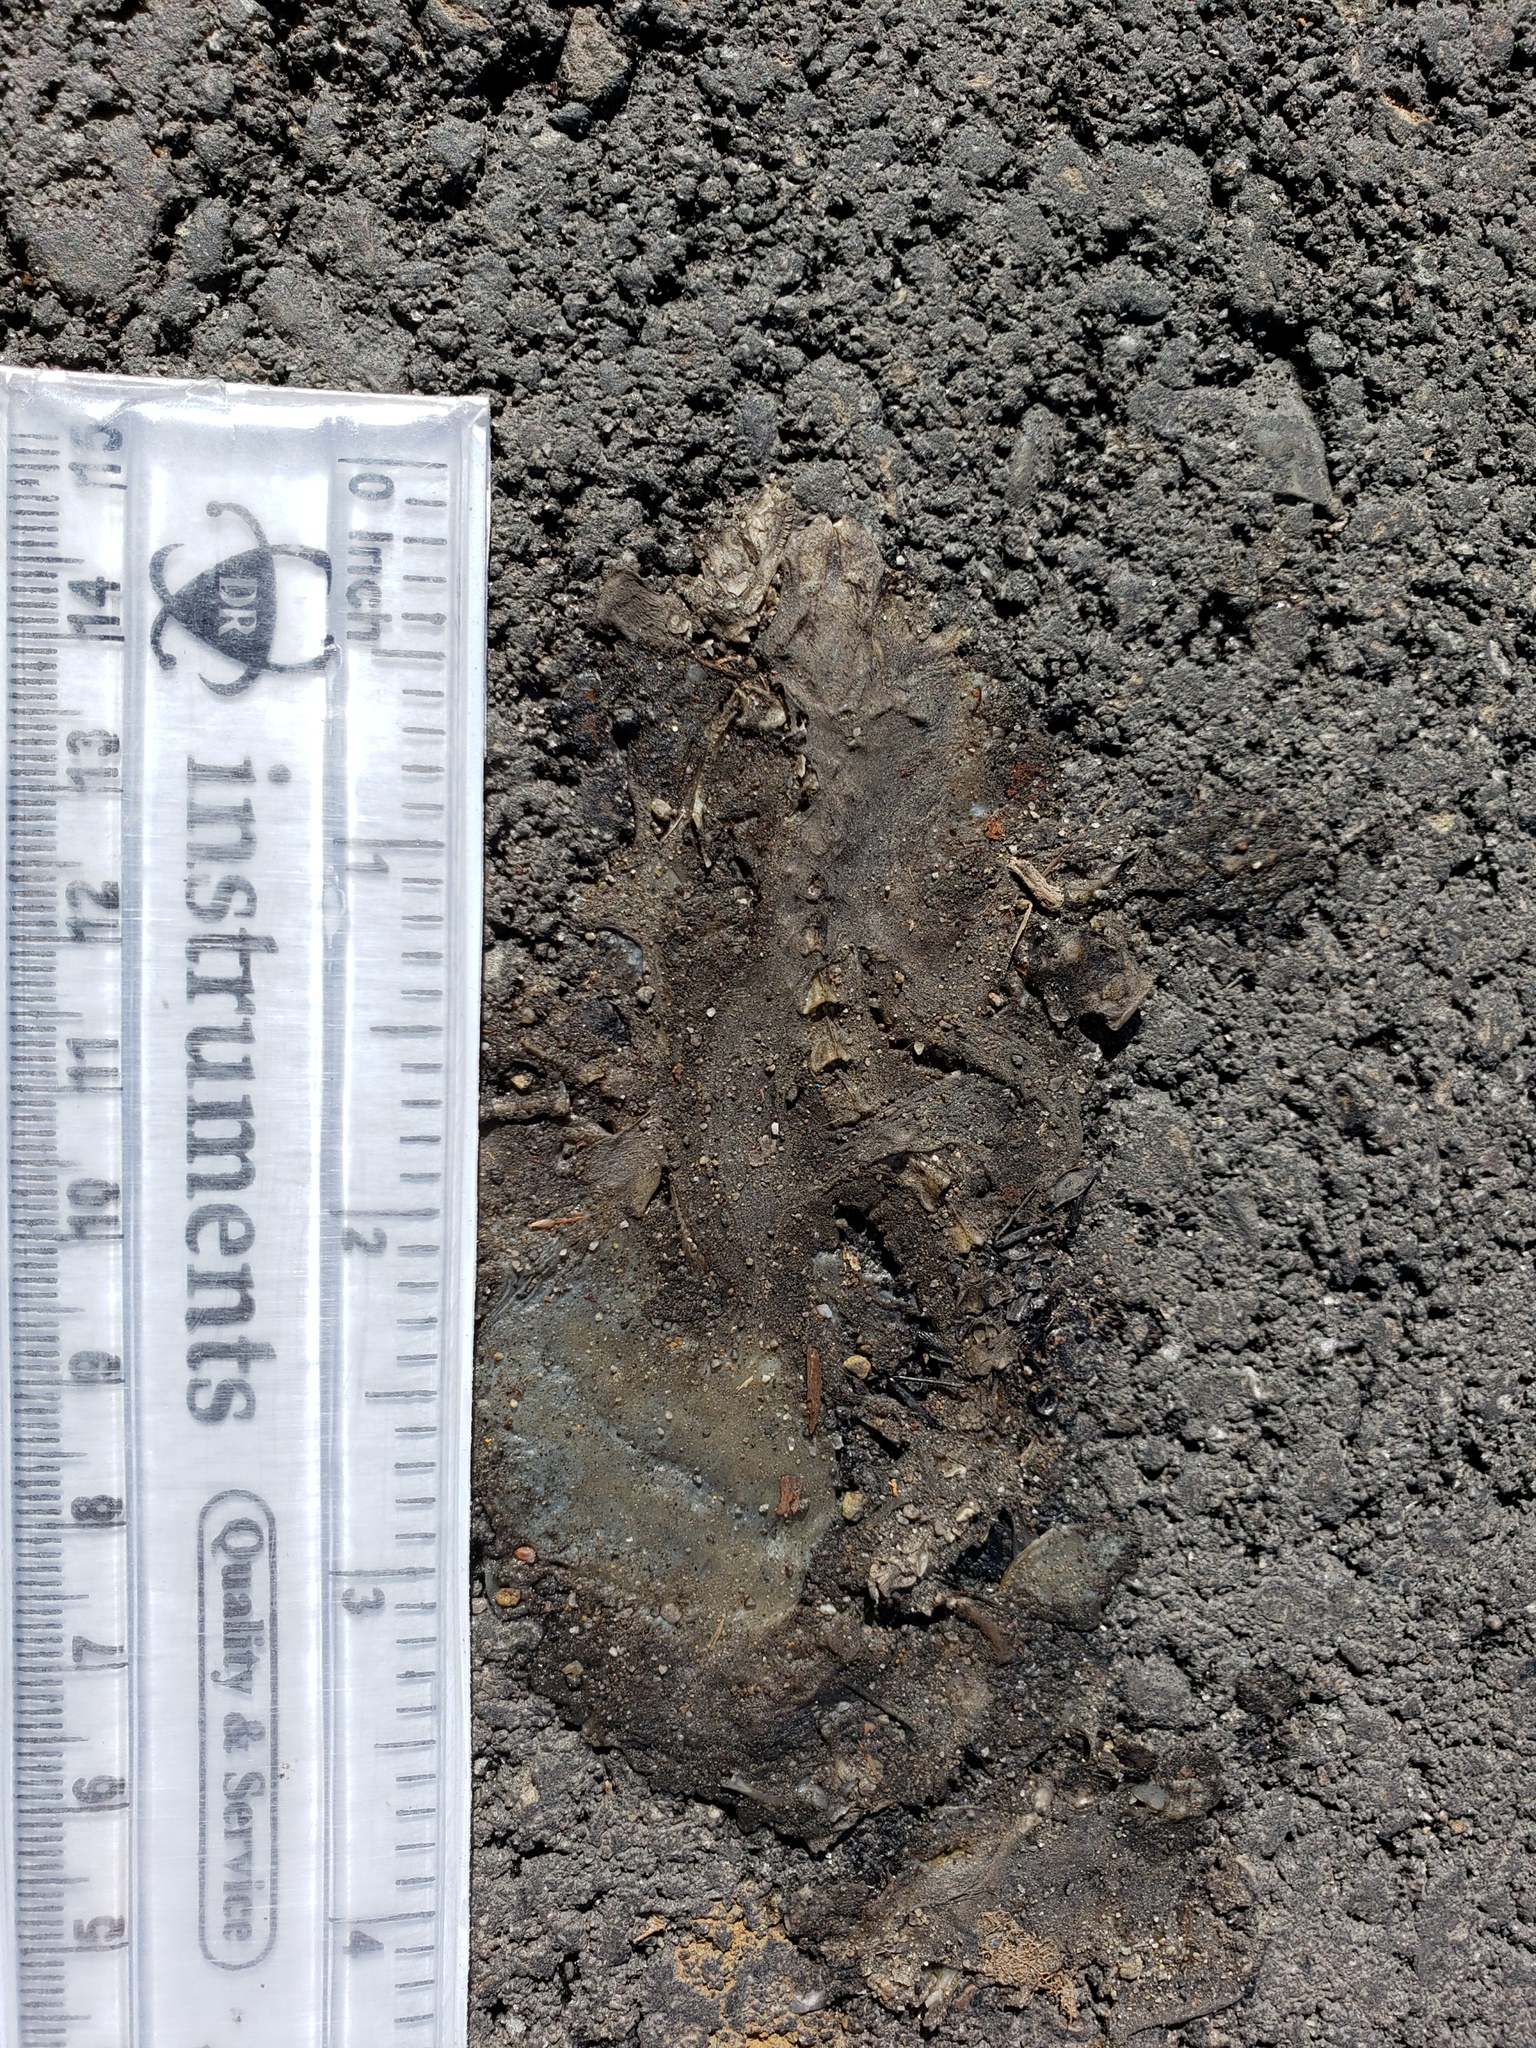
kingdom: Animalia
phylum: Chordata
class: Amphibia
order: Caudata
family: Salamandridae
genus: Taricha
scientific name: Taricha
